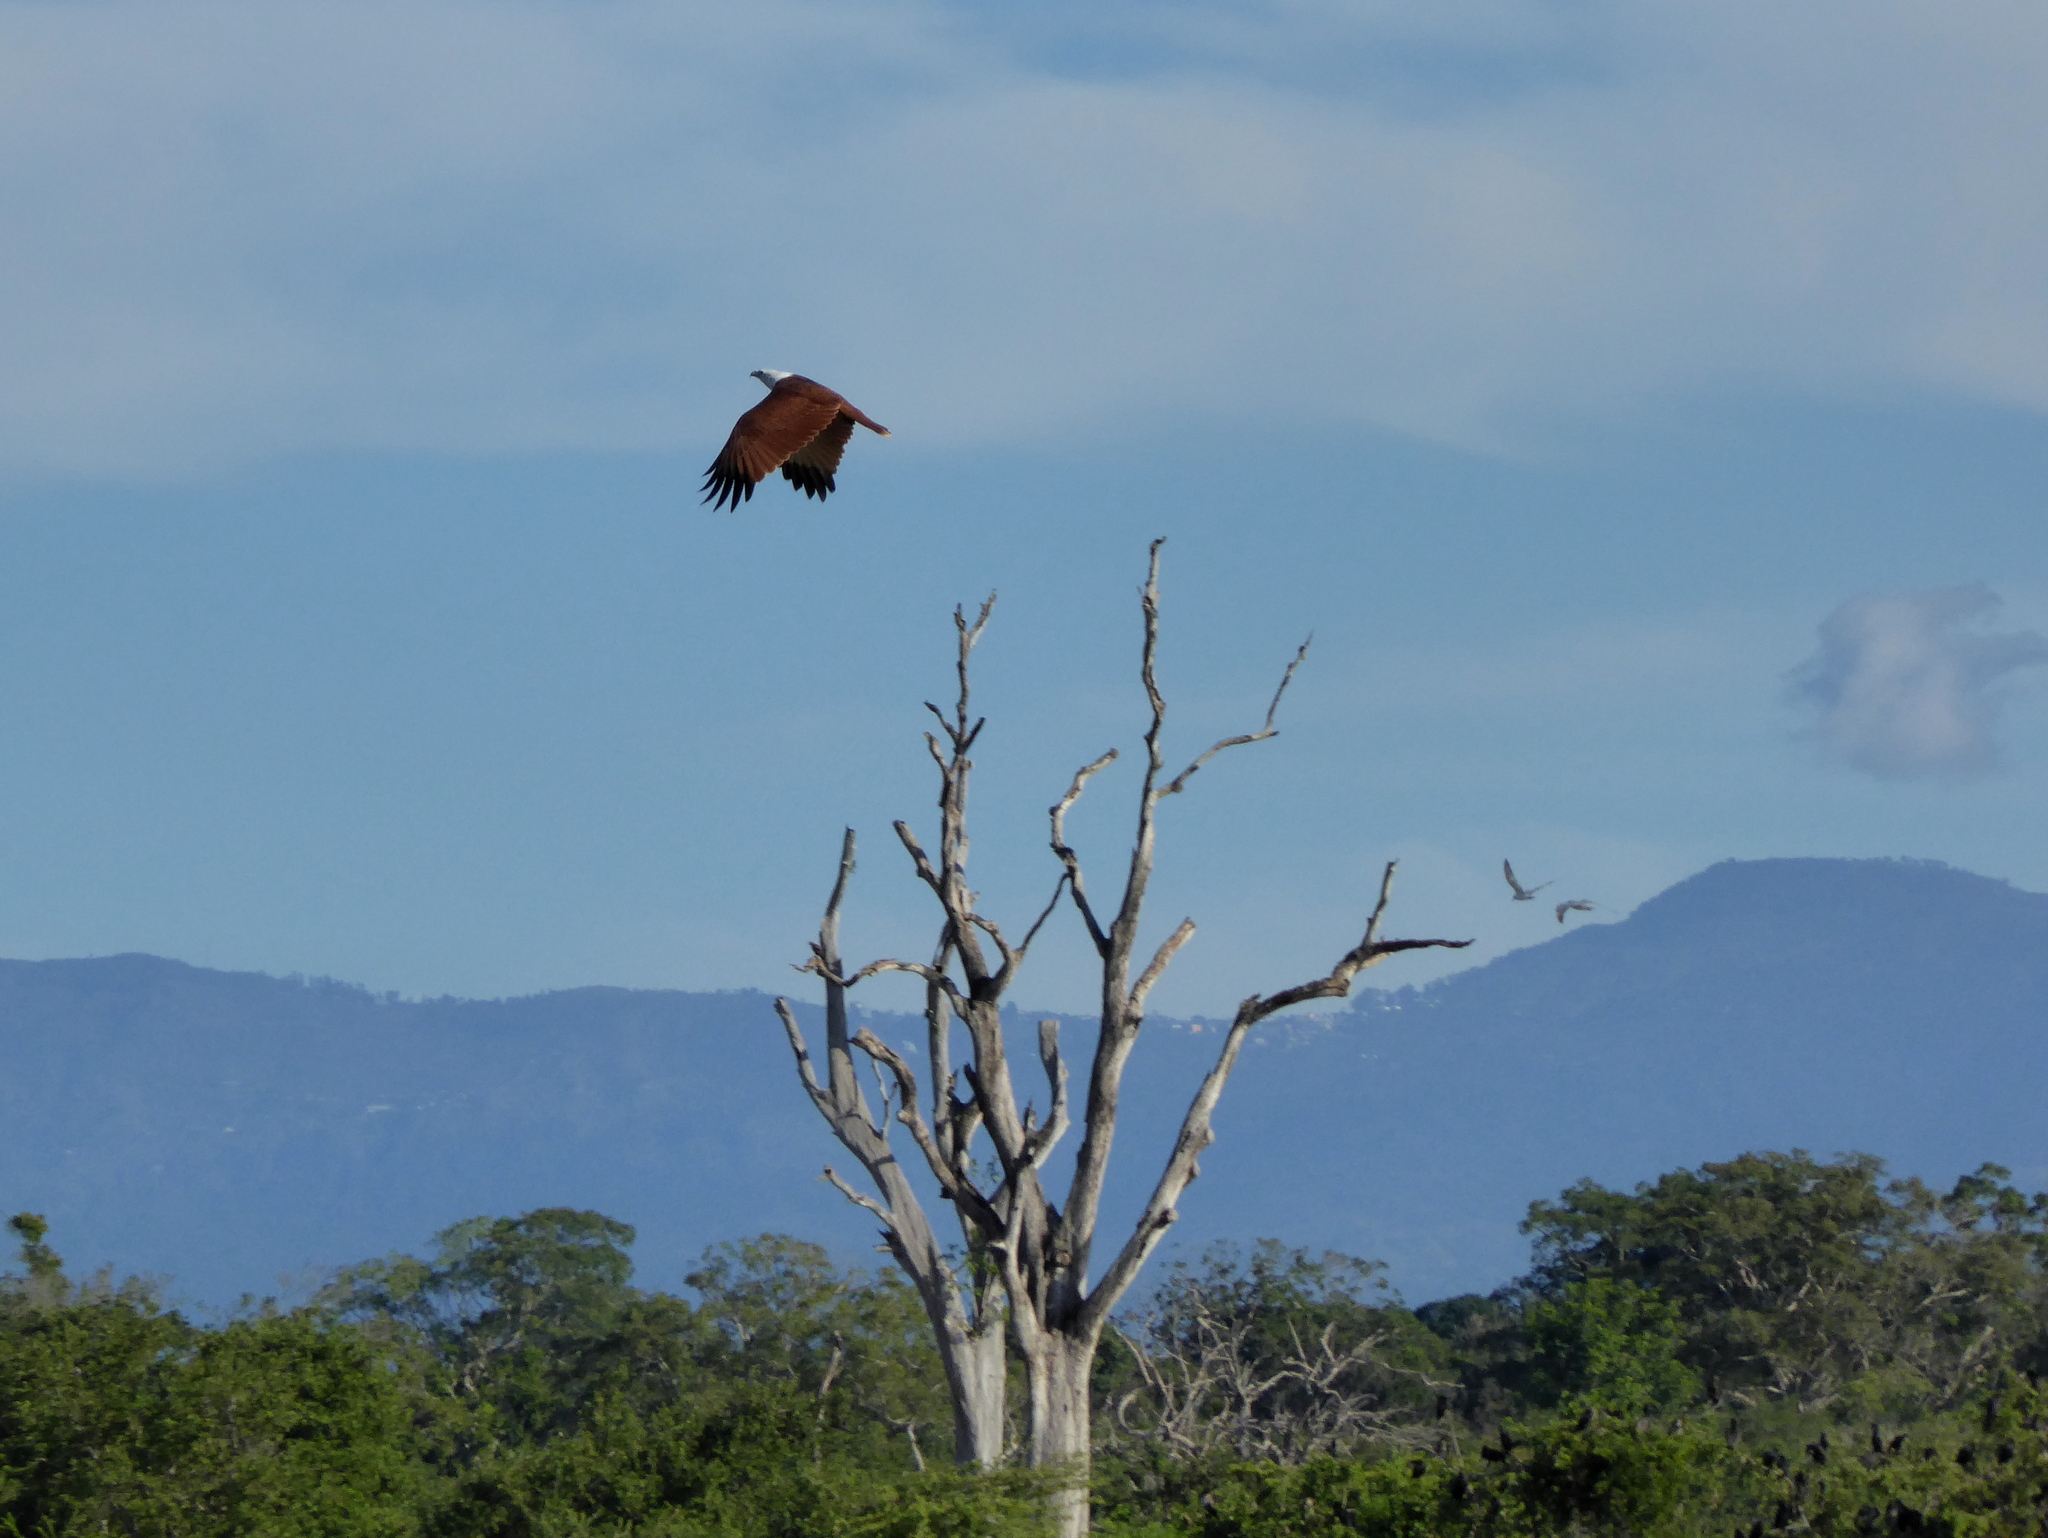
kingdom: Animalia
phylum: Chordata
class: Aves
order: Accipitriformes
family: Accipitridae
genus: Haliastur
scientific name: Haliastur indus
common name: Brahminy kite
